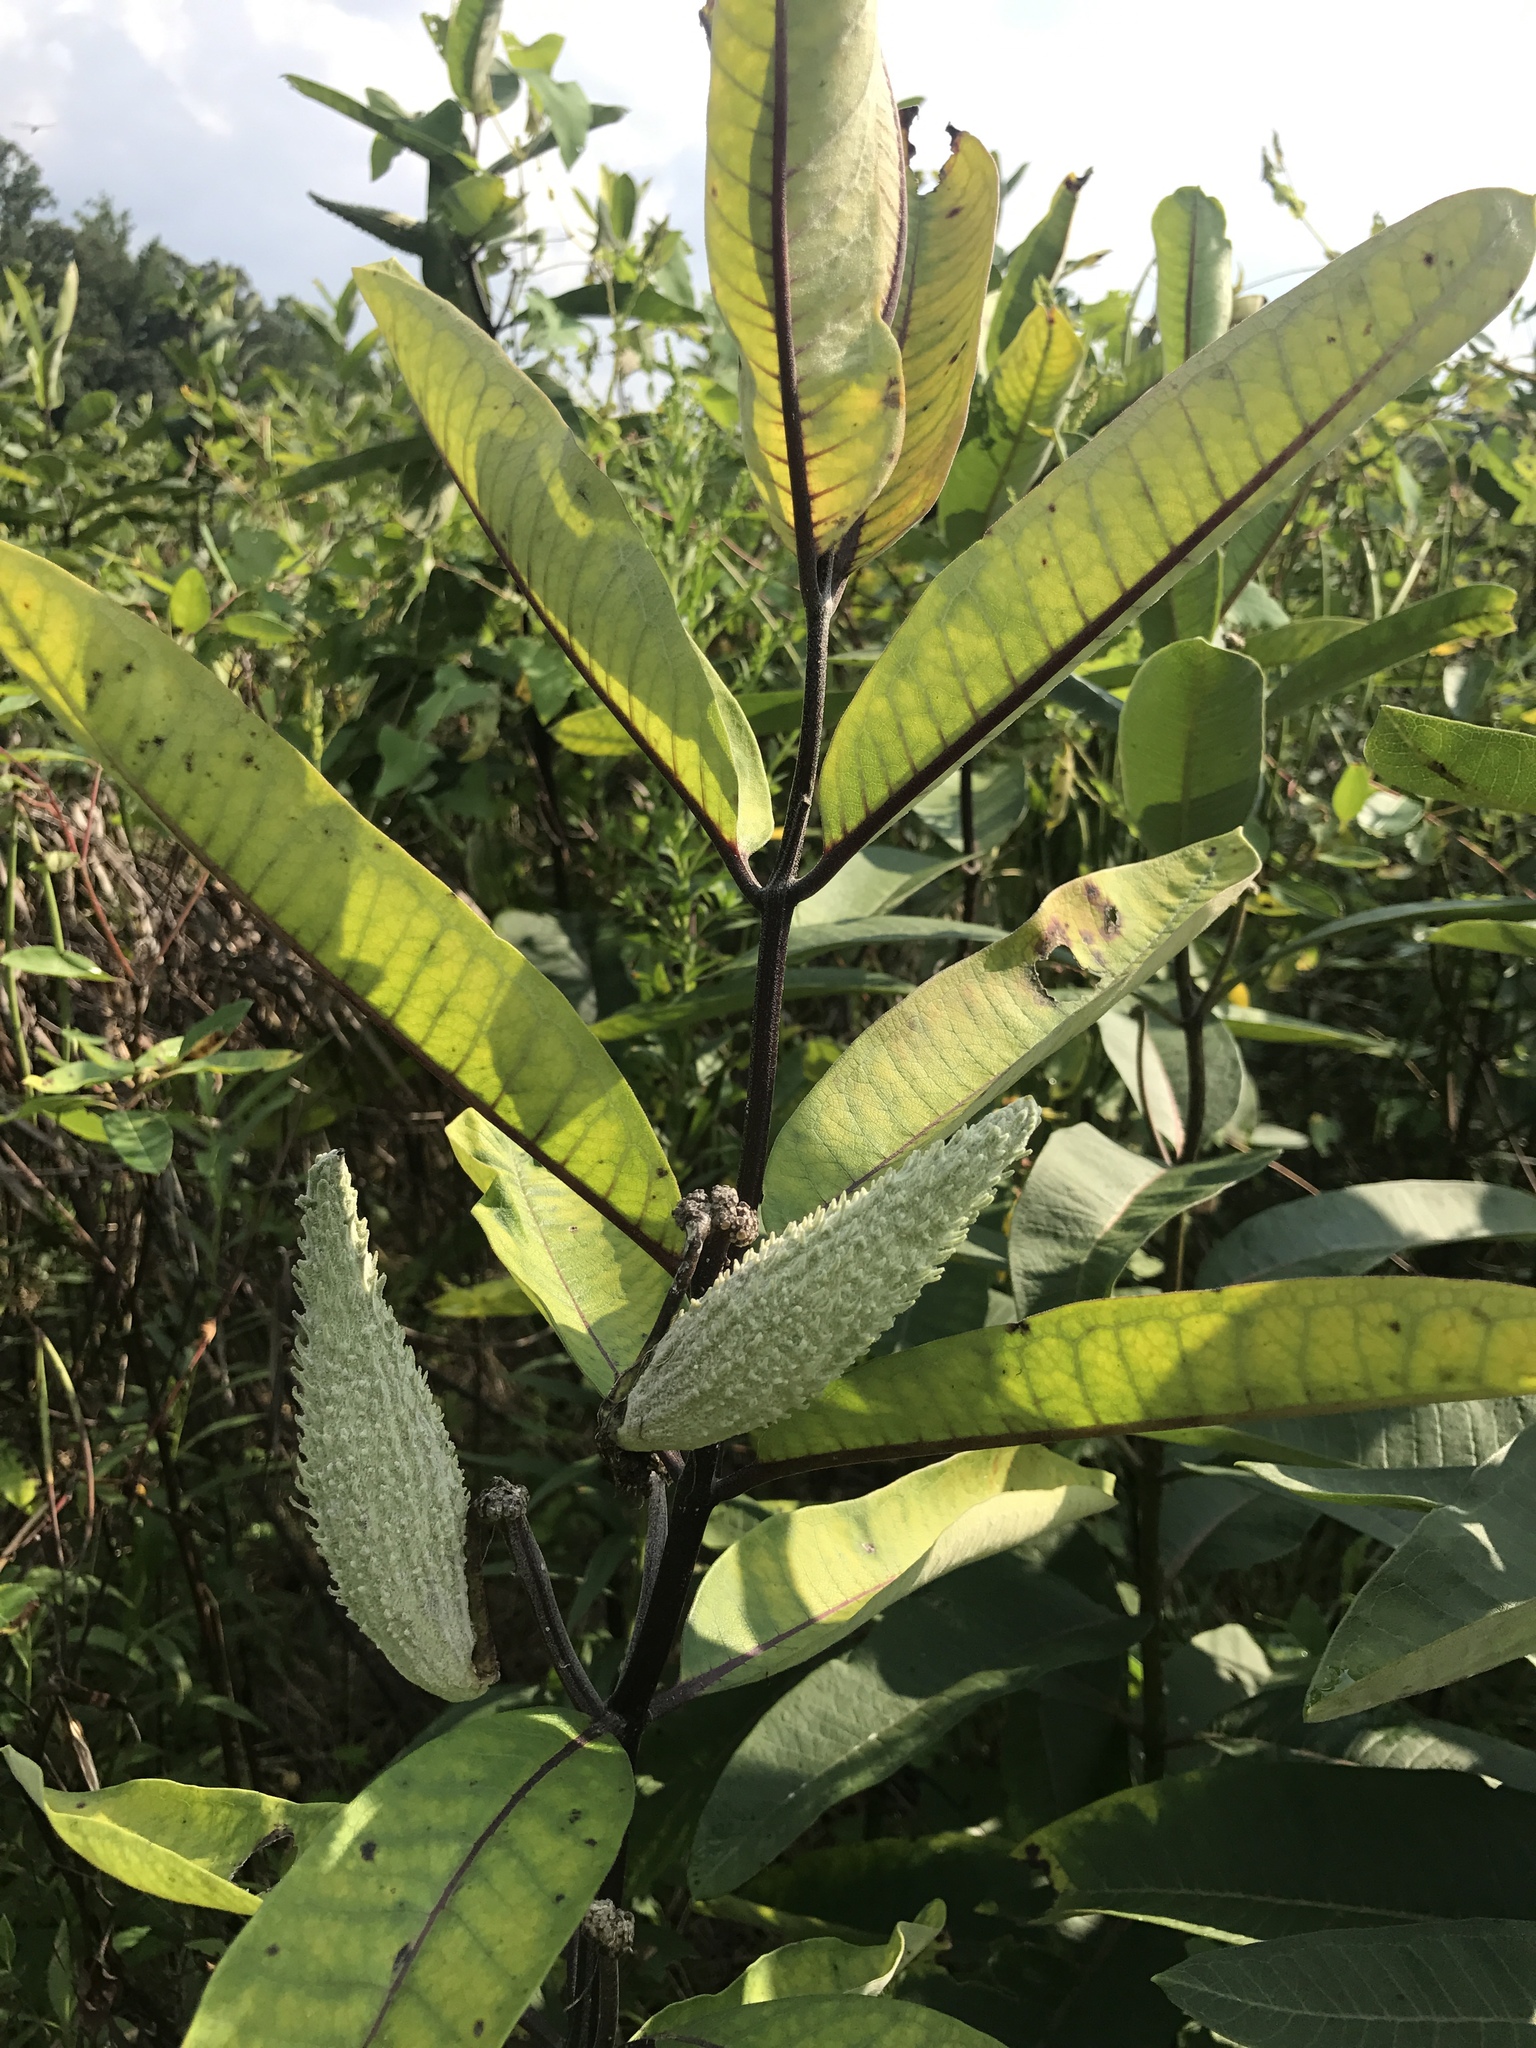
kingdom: Plantae
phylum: Tracheophyta
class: Magnoliopsida
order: Gentianales
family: Apocynaceae
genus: Asclepias
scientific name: Asclepias syriaca
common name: Common milkweed
